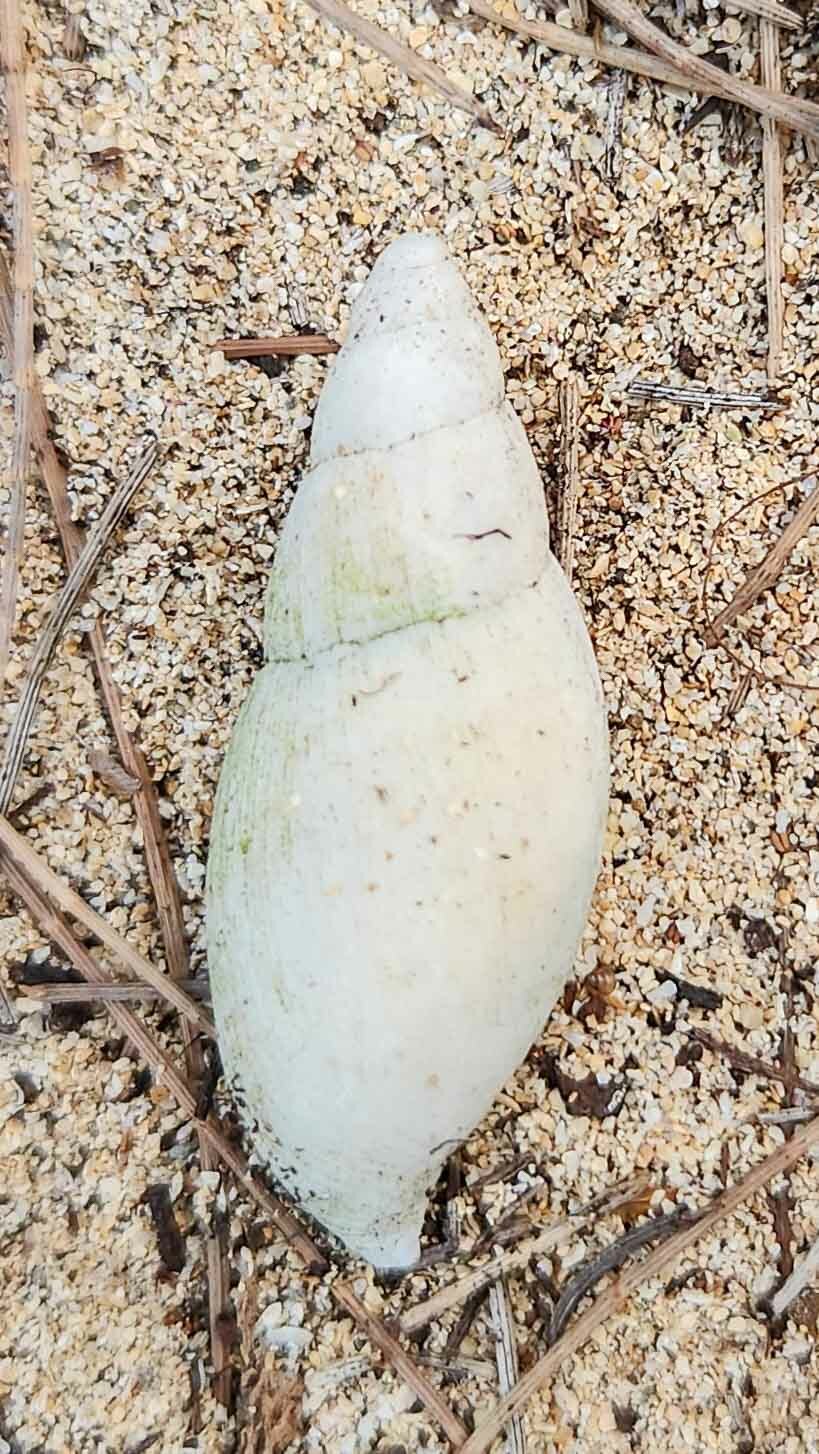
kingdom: Animalia
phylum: Mollusca
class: Gastropoda
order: Stylommatophora
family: Spiraxidae
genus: Euglandina
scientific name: Euglandina rosea
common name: Rosy wolfsnail
